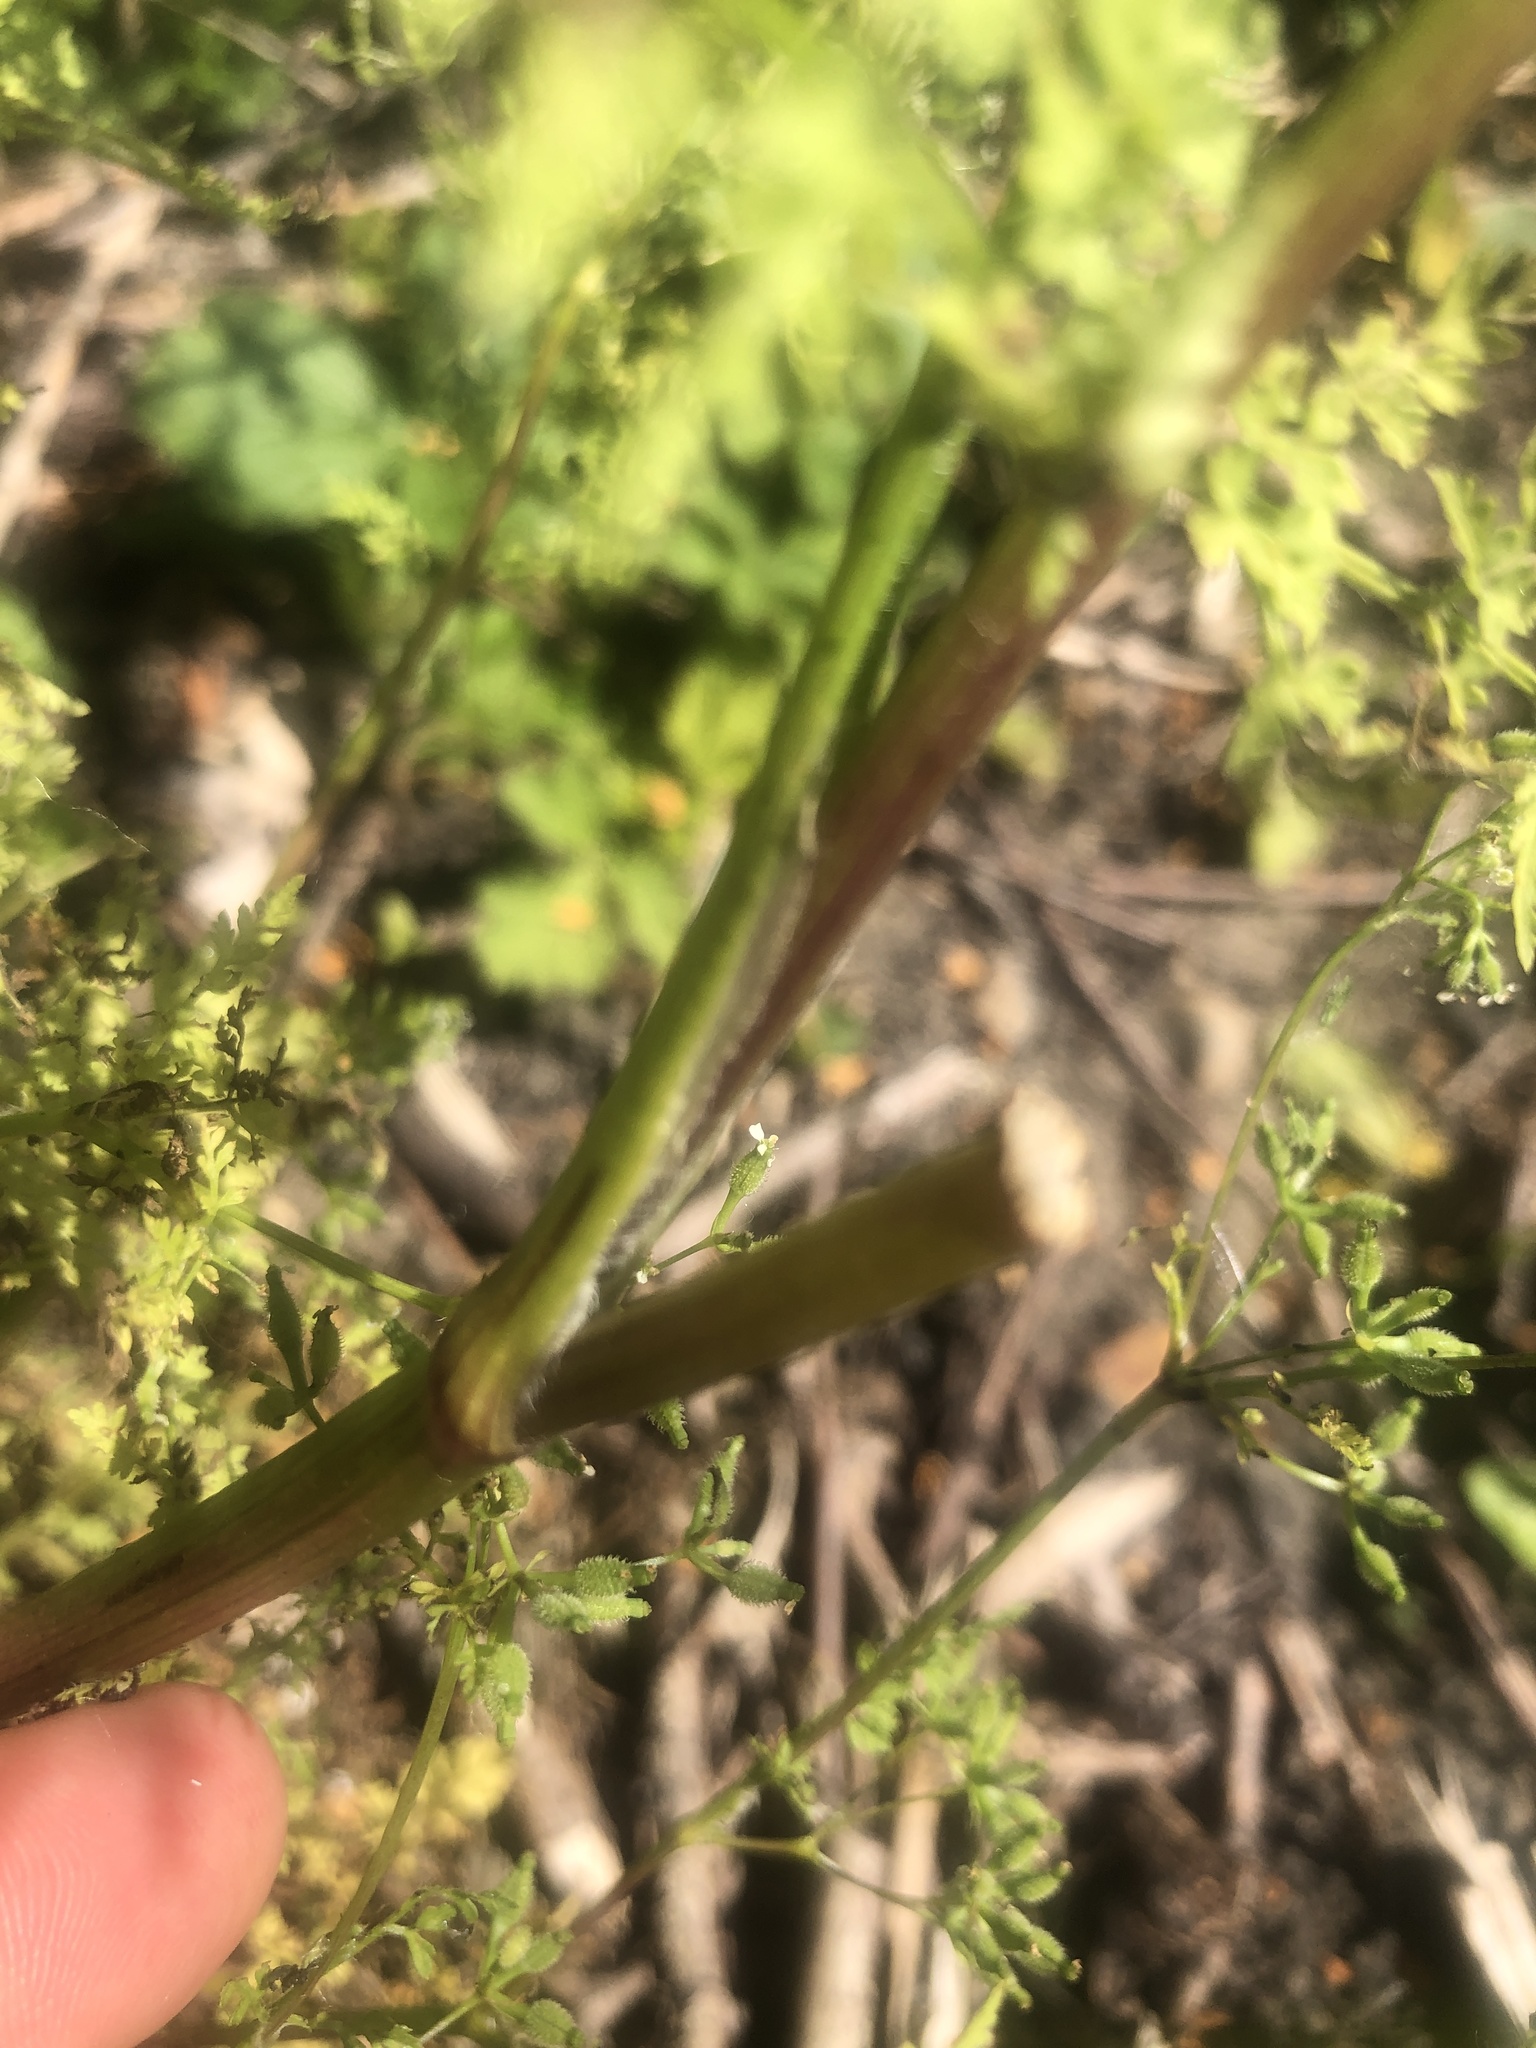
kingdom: Plantae
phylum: Tracheophyta
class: Magnoliopsida
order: Apiales
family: Apiaceae
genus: Anthriscus
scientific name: Anthriscus caucalis
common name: Bur chervil
